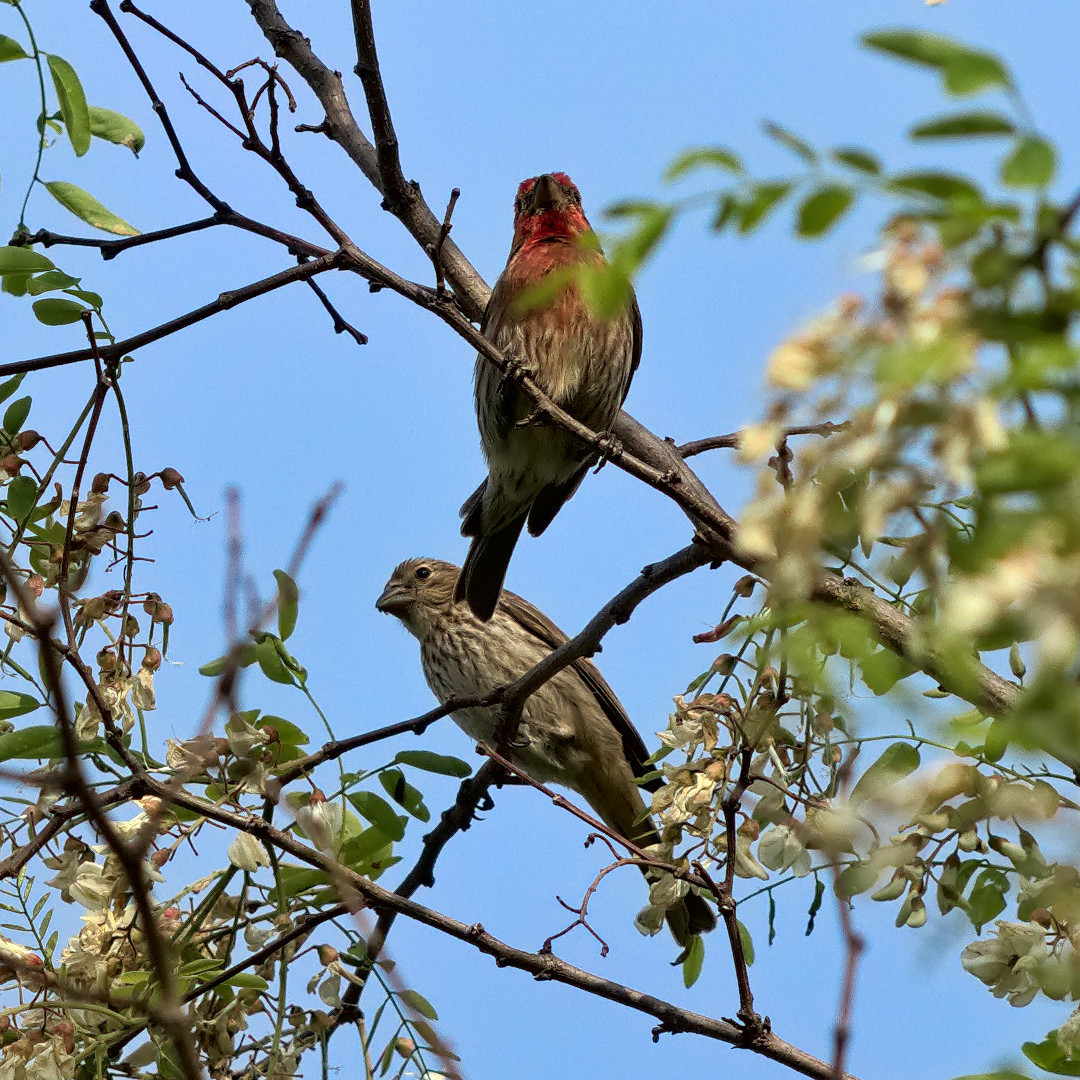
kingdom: Animalia
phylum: Chordata
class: Aves
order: Passeriformes
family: Fringillidae
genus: Haemorhous
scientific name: Haemorhous mexicanus
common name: House finch
